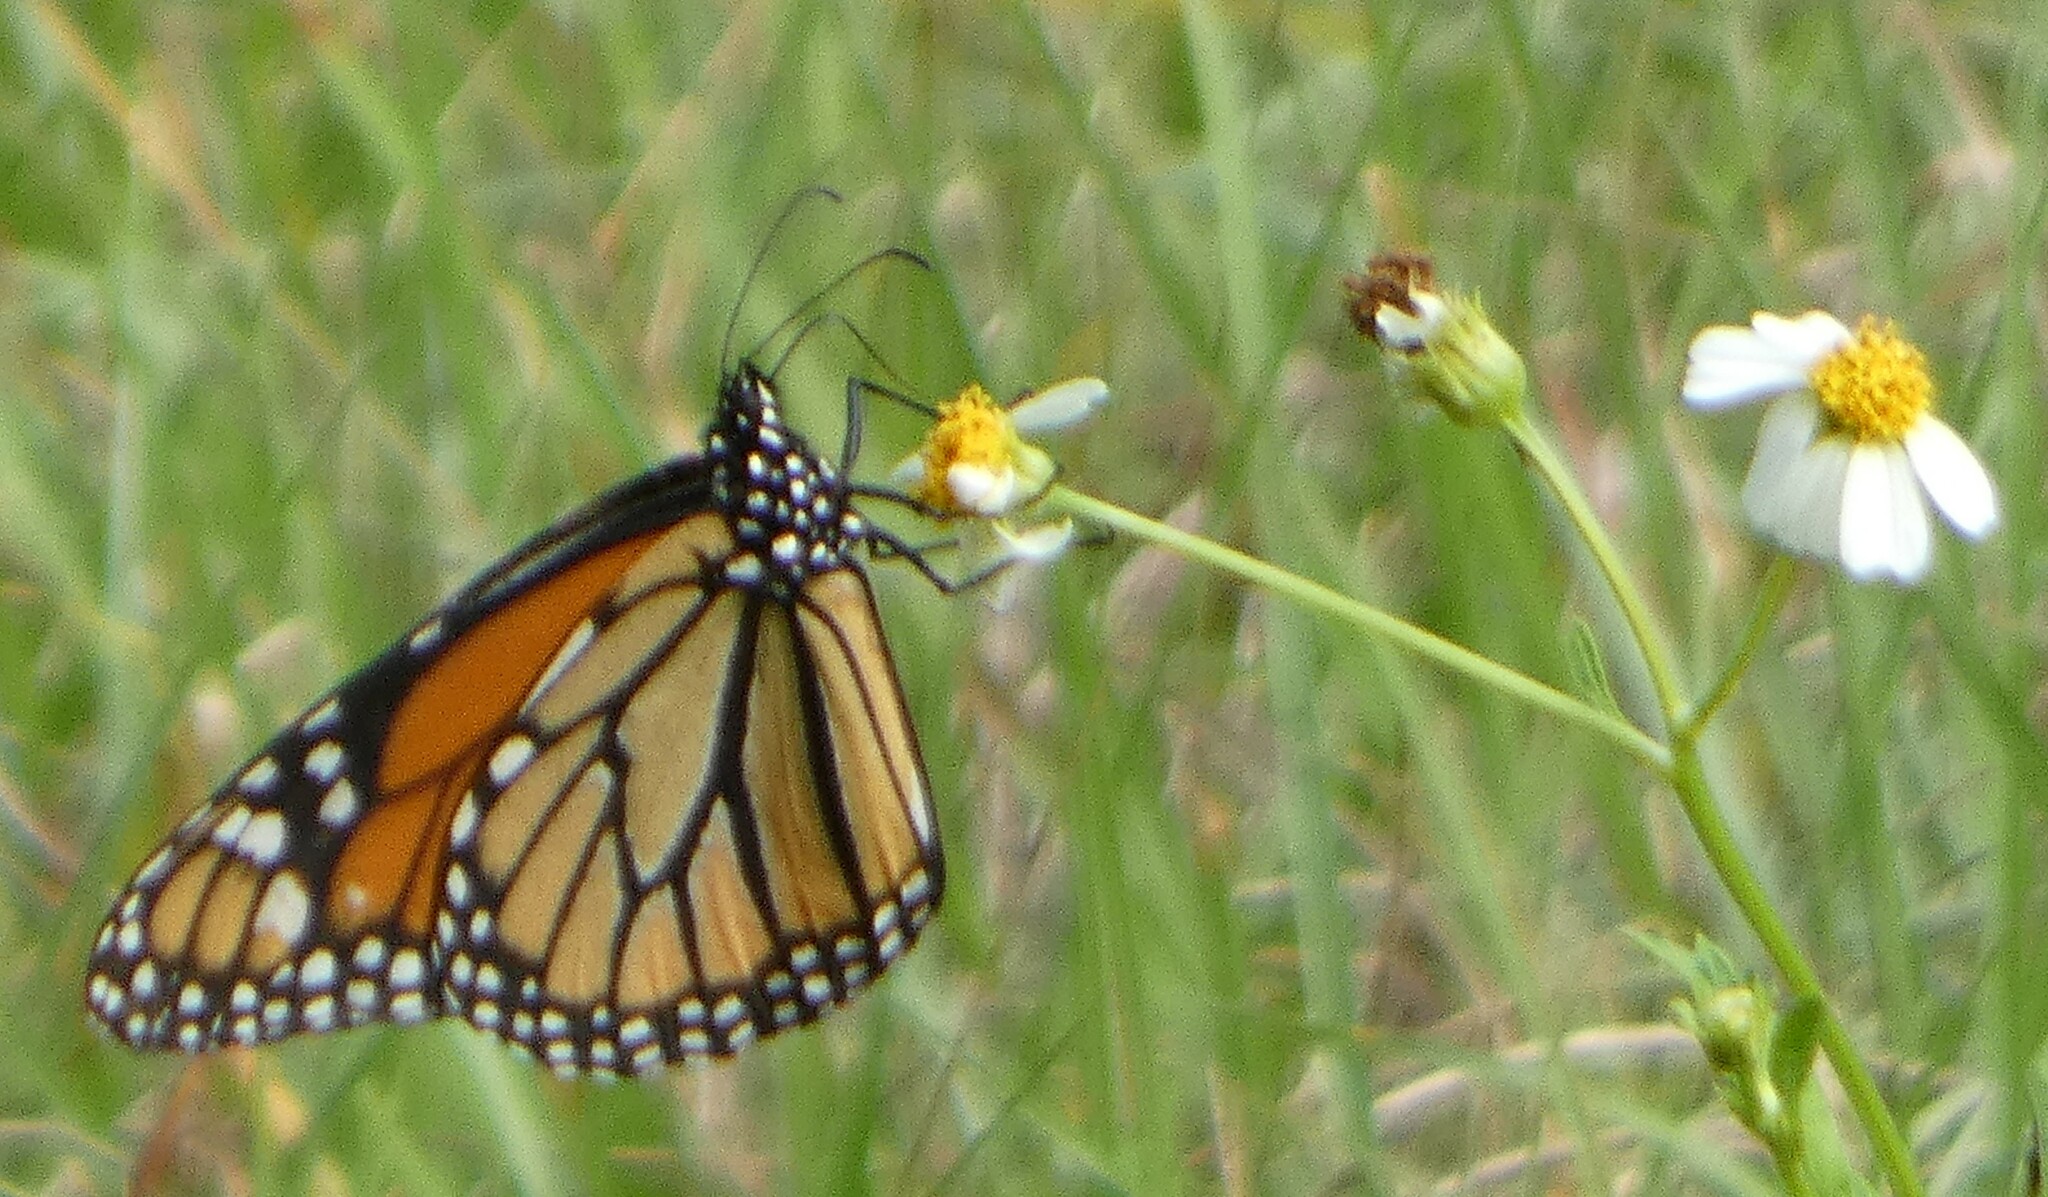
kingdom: Animalia
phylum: Arthropoda
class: Insecta
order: Lepidoptera
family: Nymphalidae
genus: Danaus
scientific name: Danaus plexippus
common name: Monarch
